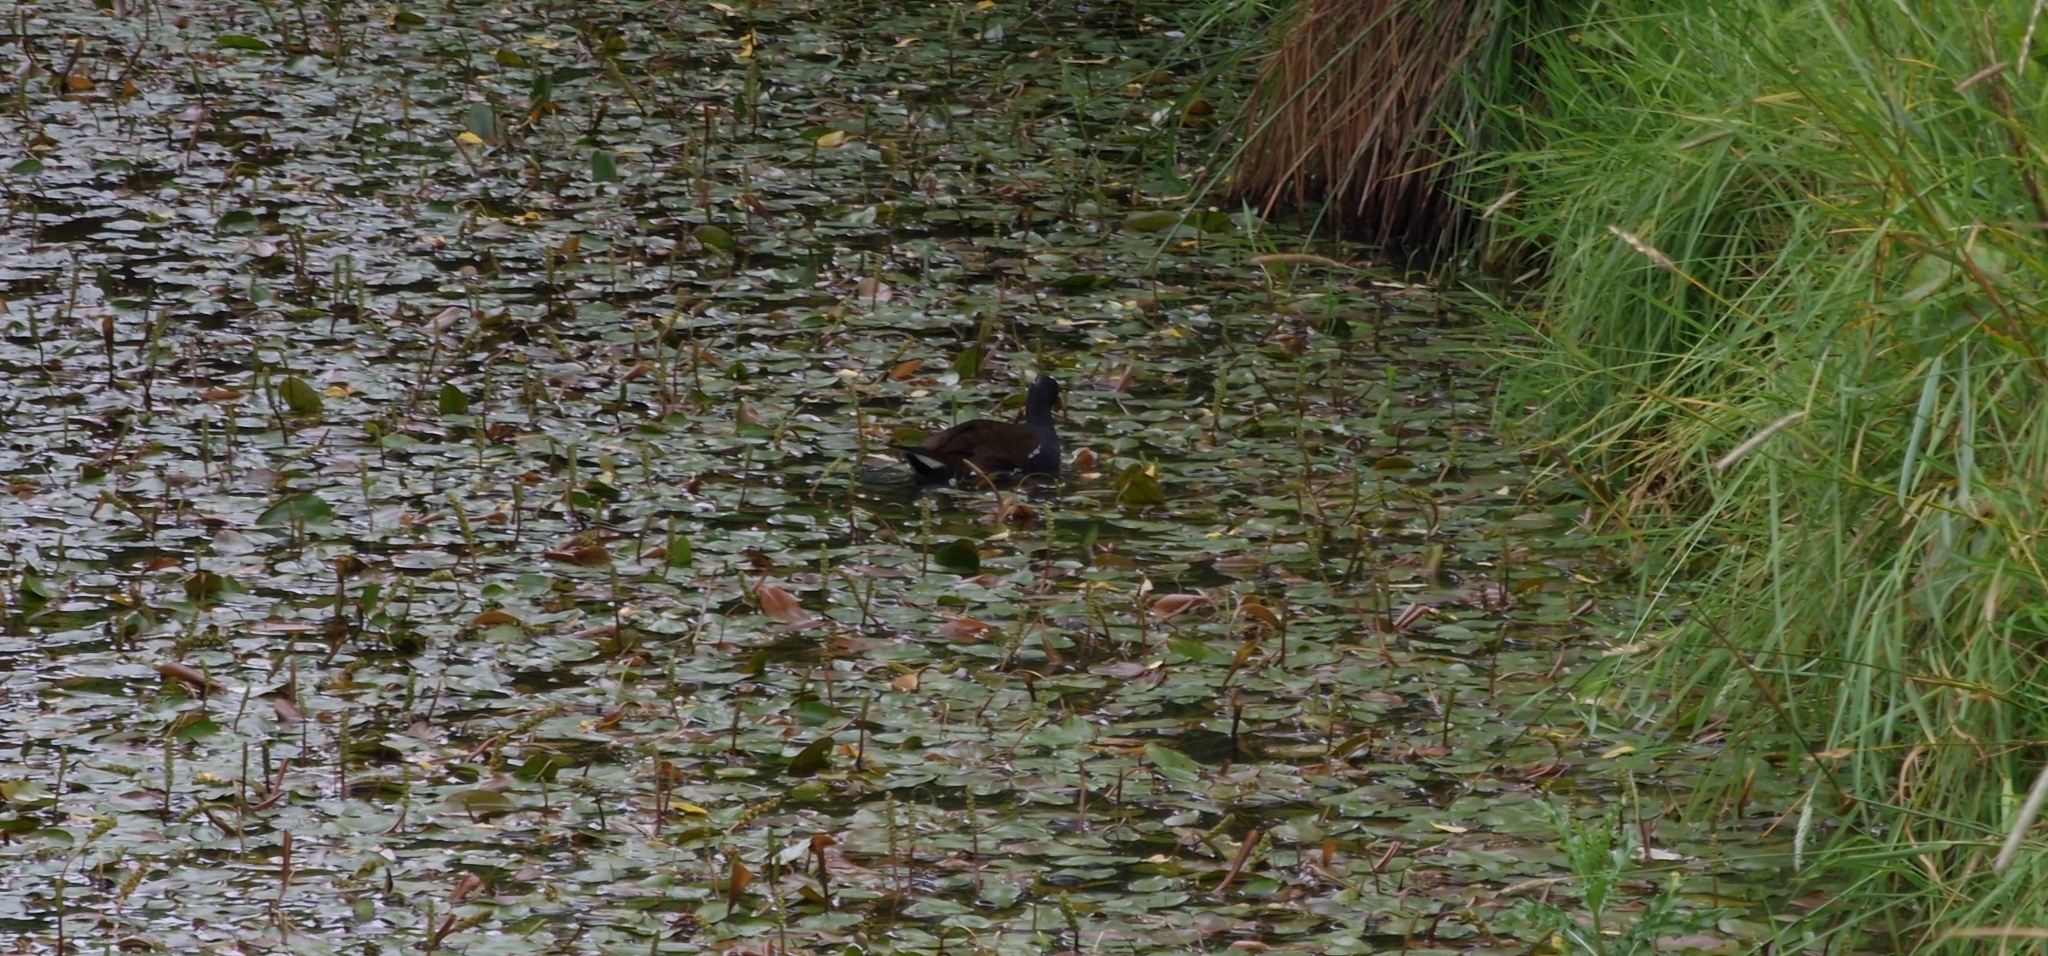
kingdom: Animalia
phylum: Chordata
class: Aves
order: Gruiformes
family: Rallidae
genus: Gallinula
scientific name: Gallinula chloropus
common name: Common moorhen
